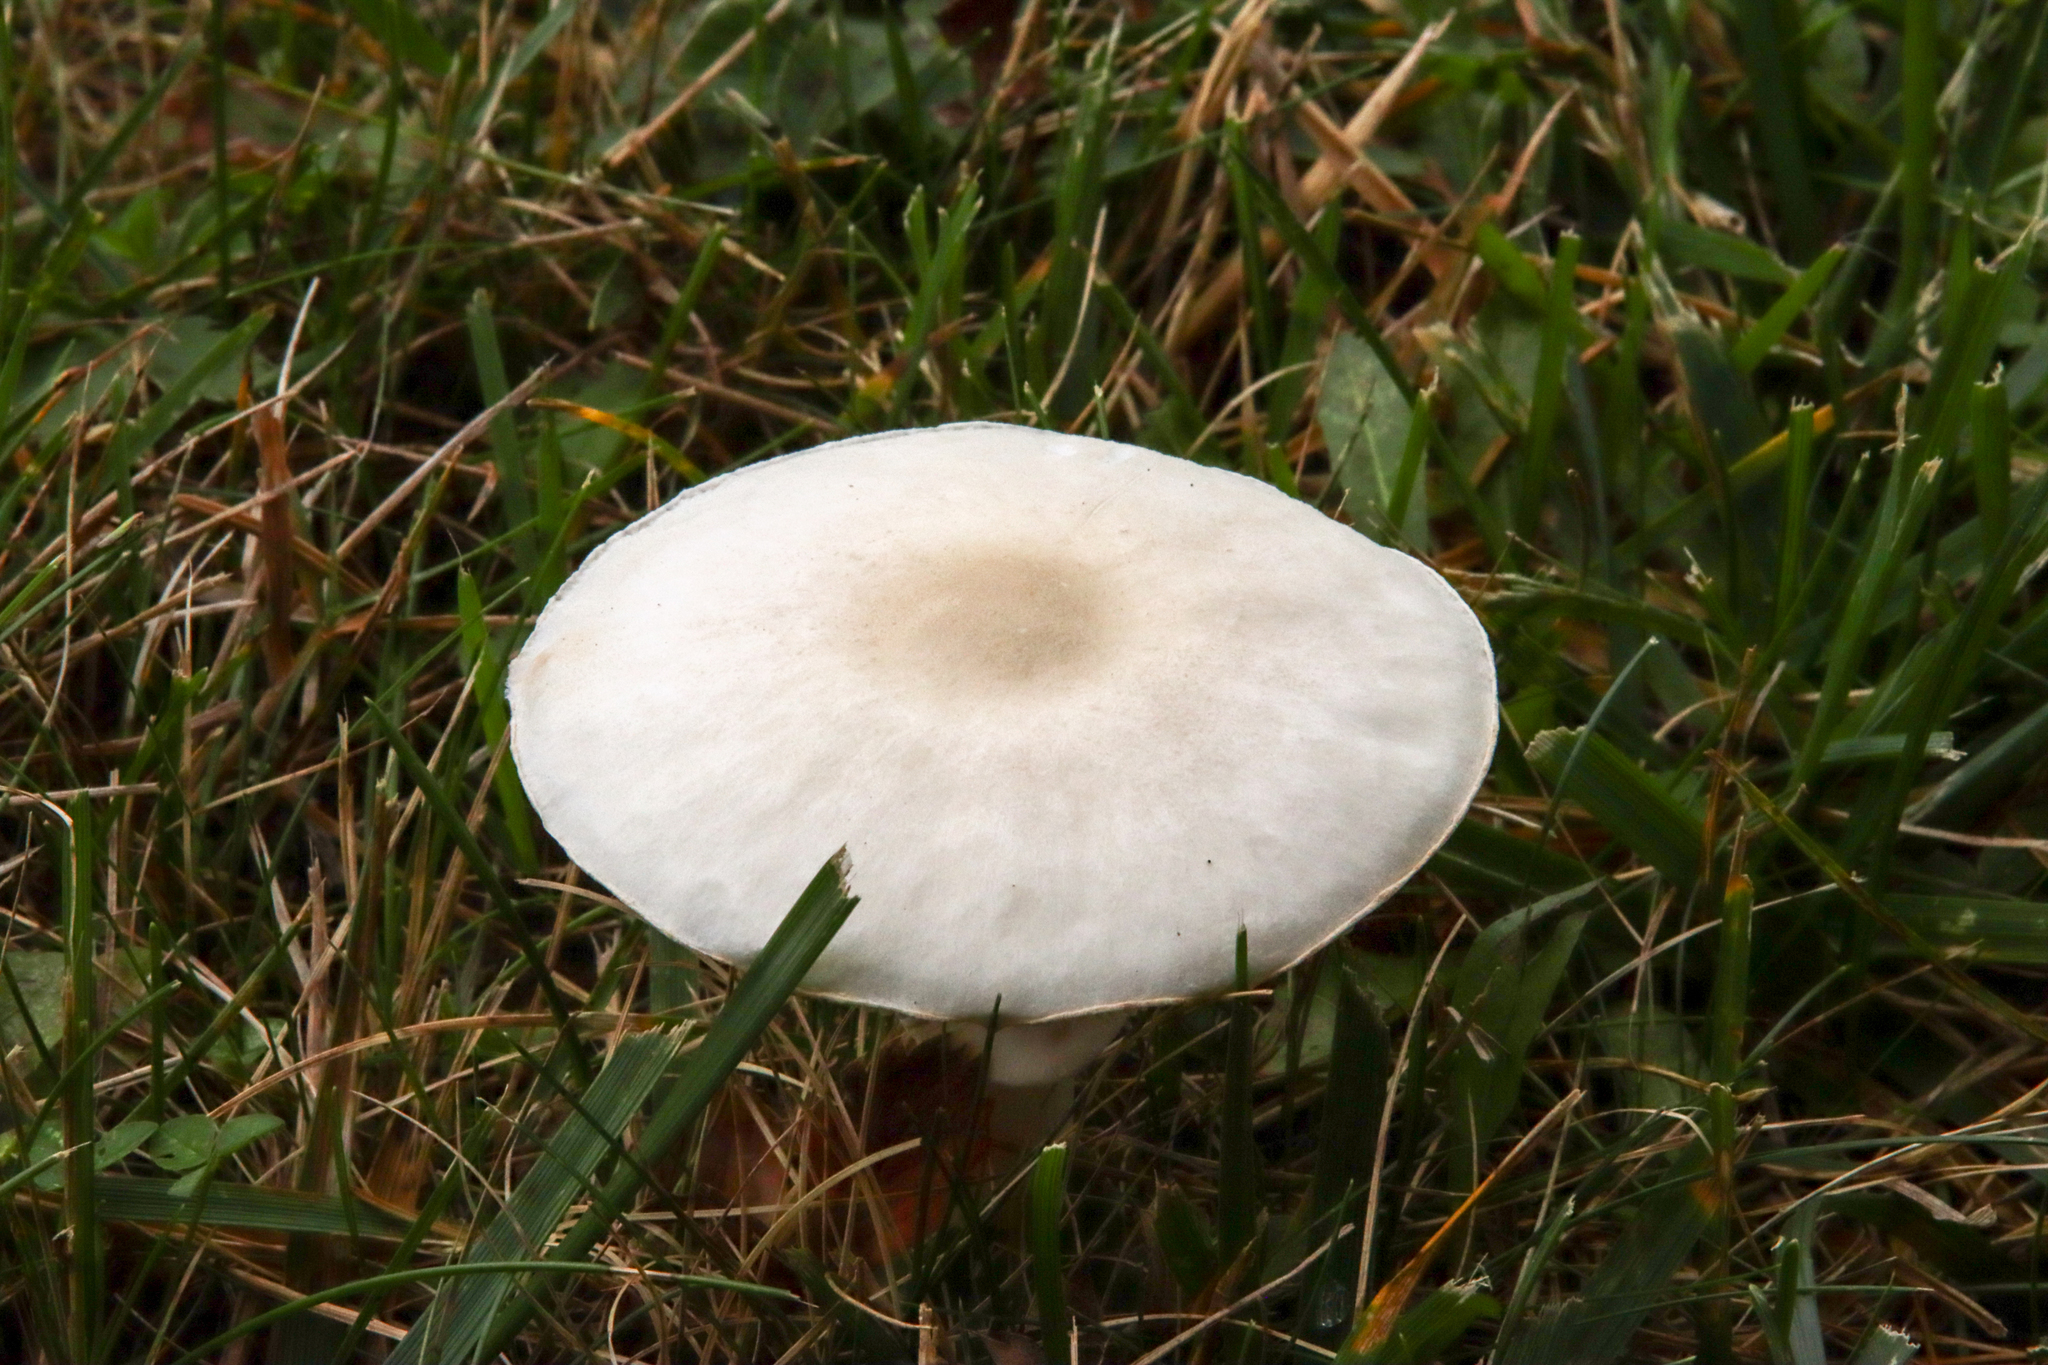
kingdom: Fungi
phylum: Basidiomycota
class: Agaricomycetes
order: Agaricales
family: Agaricaceae
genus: Leucoagaricus
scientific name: Leucoagaricus leucothites
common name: White dapperling
